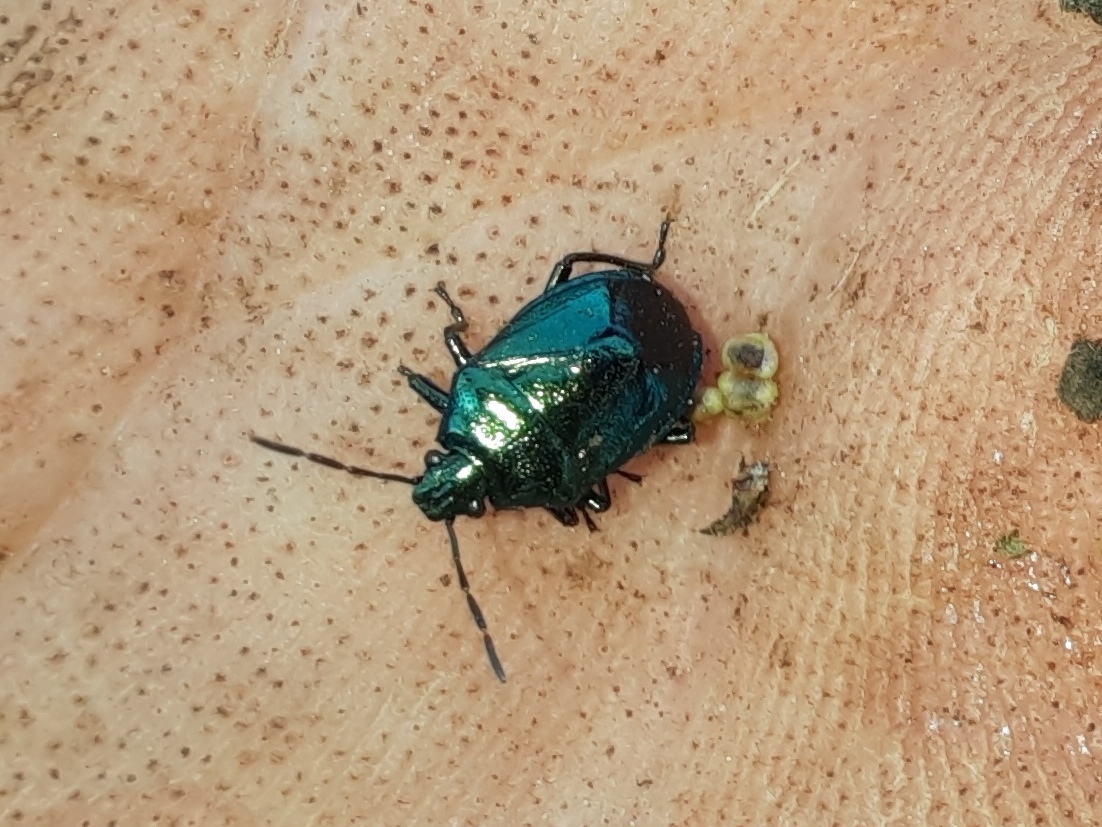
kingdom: Animalia
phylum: Arthropoda
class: Insecta
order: Hemiptera
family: Pentatomidae
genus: Zicrona
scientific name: Zicrona caerulea
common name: Blue shieldbug
